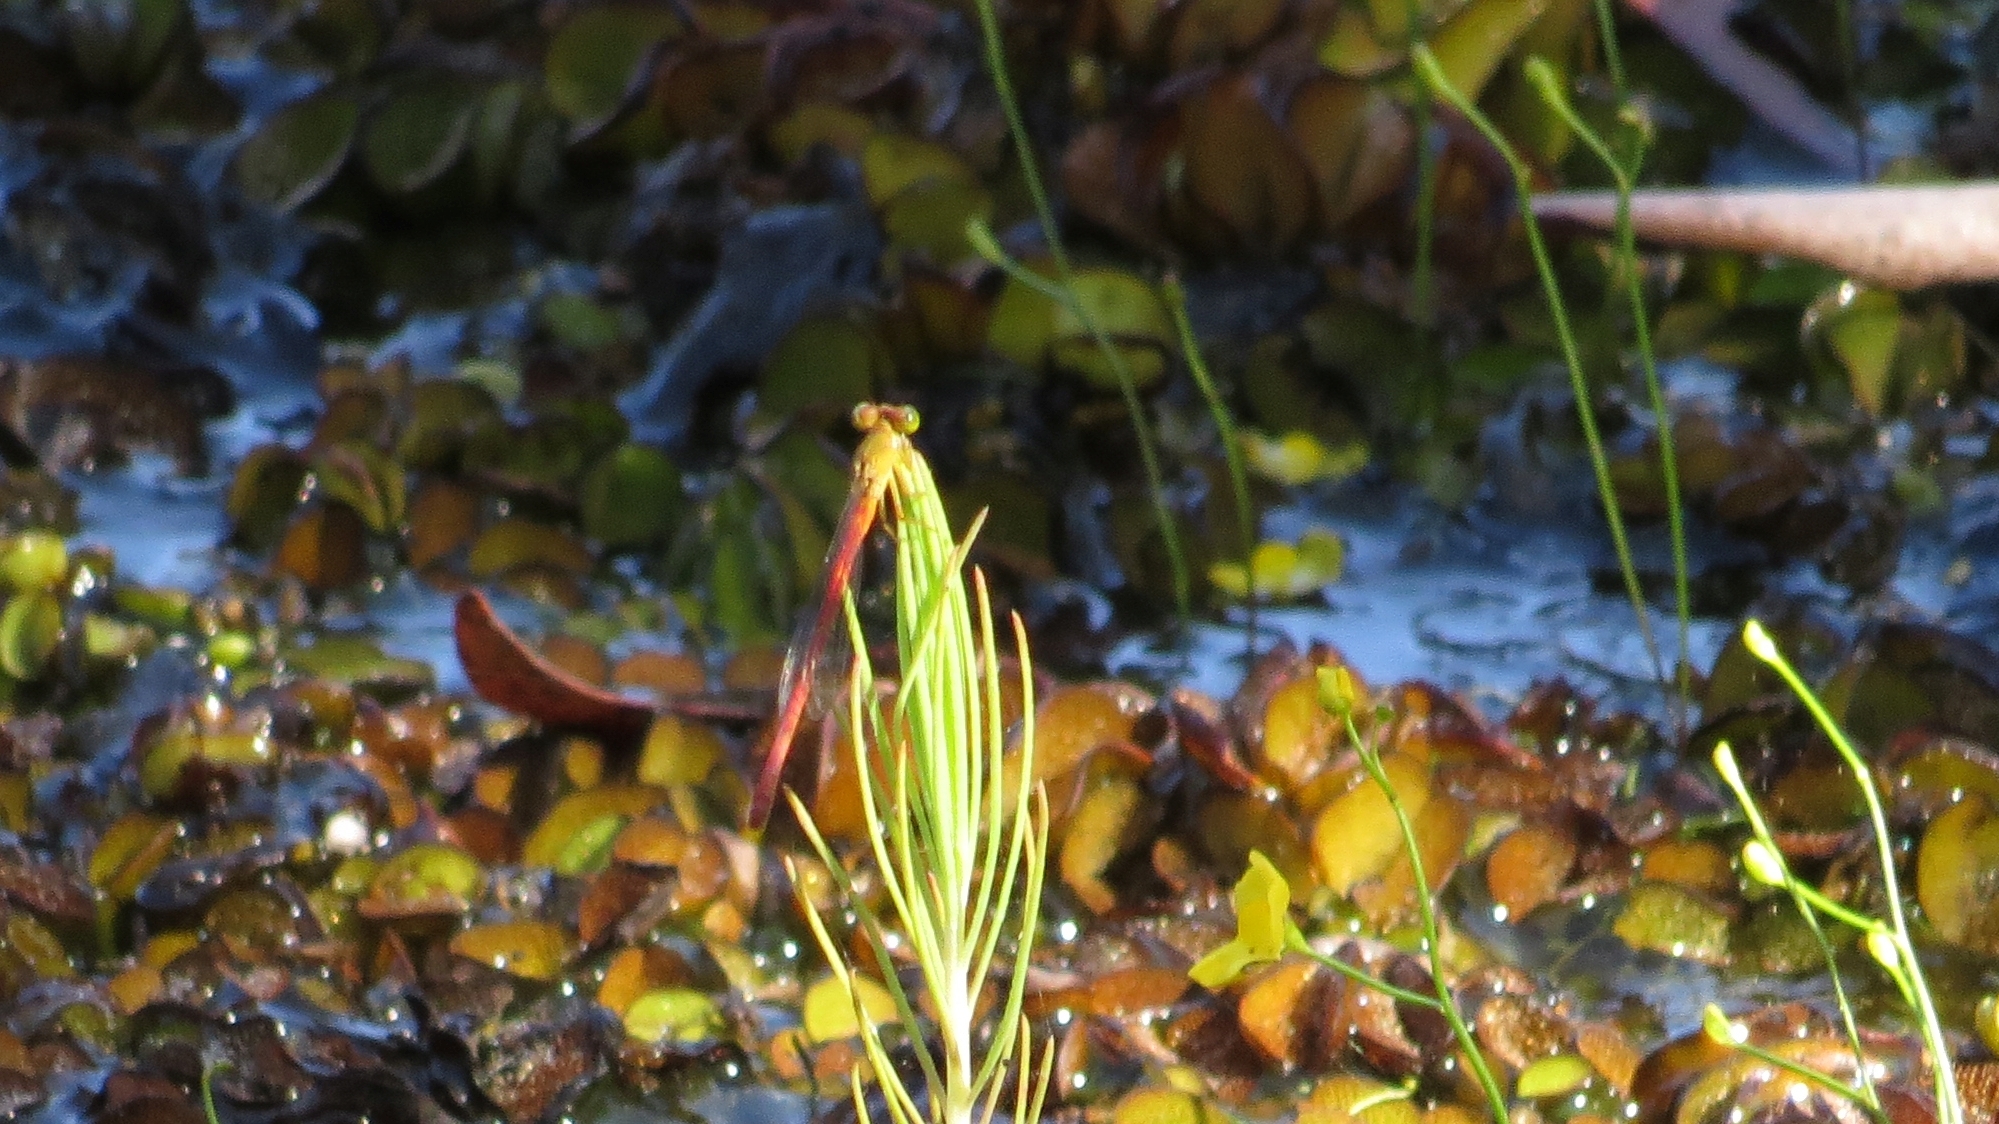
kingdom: Animalia
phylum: Arthropoda
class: Insecta
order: Odonata
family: Coenagrionidae
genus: Ceriagrion
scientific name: Ceriagrion aeruginosum
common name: Redtail
